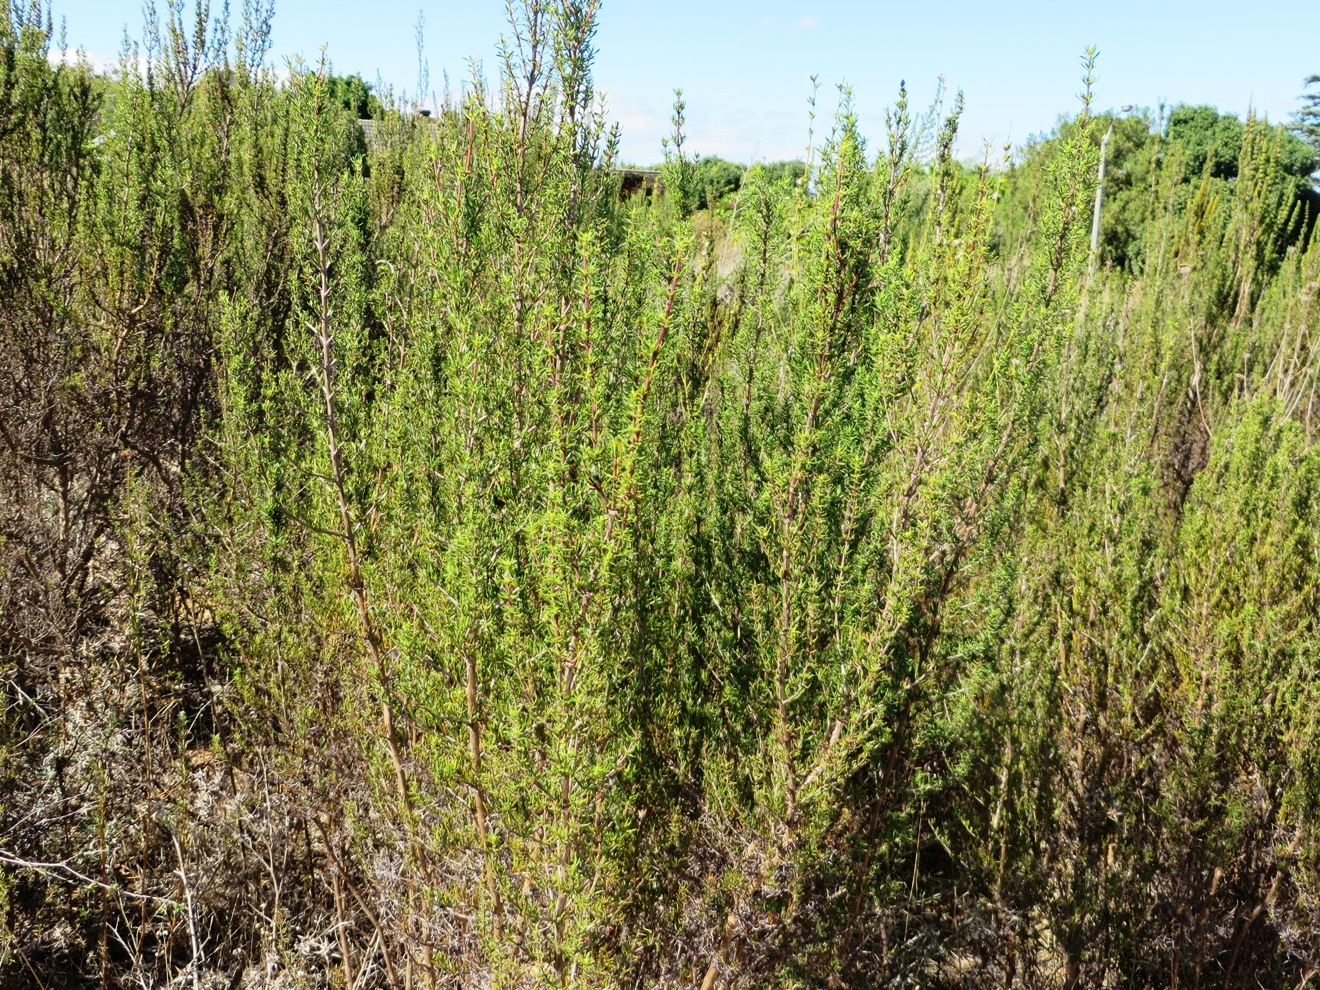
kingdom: Plantae
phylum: Tracheophyta
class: Magnoliopsida
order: Gentianales
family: Rubiaceae
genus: Anthospermum
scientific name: Anthospermum aethiopicum
